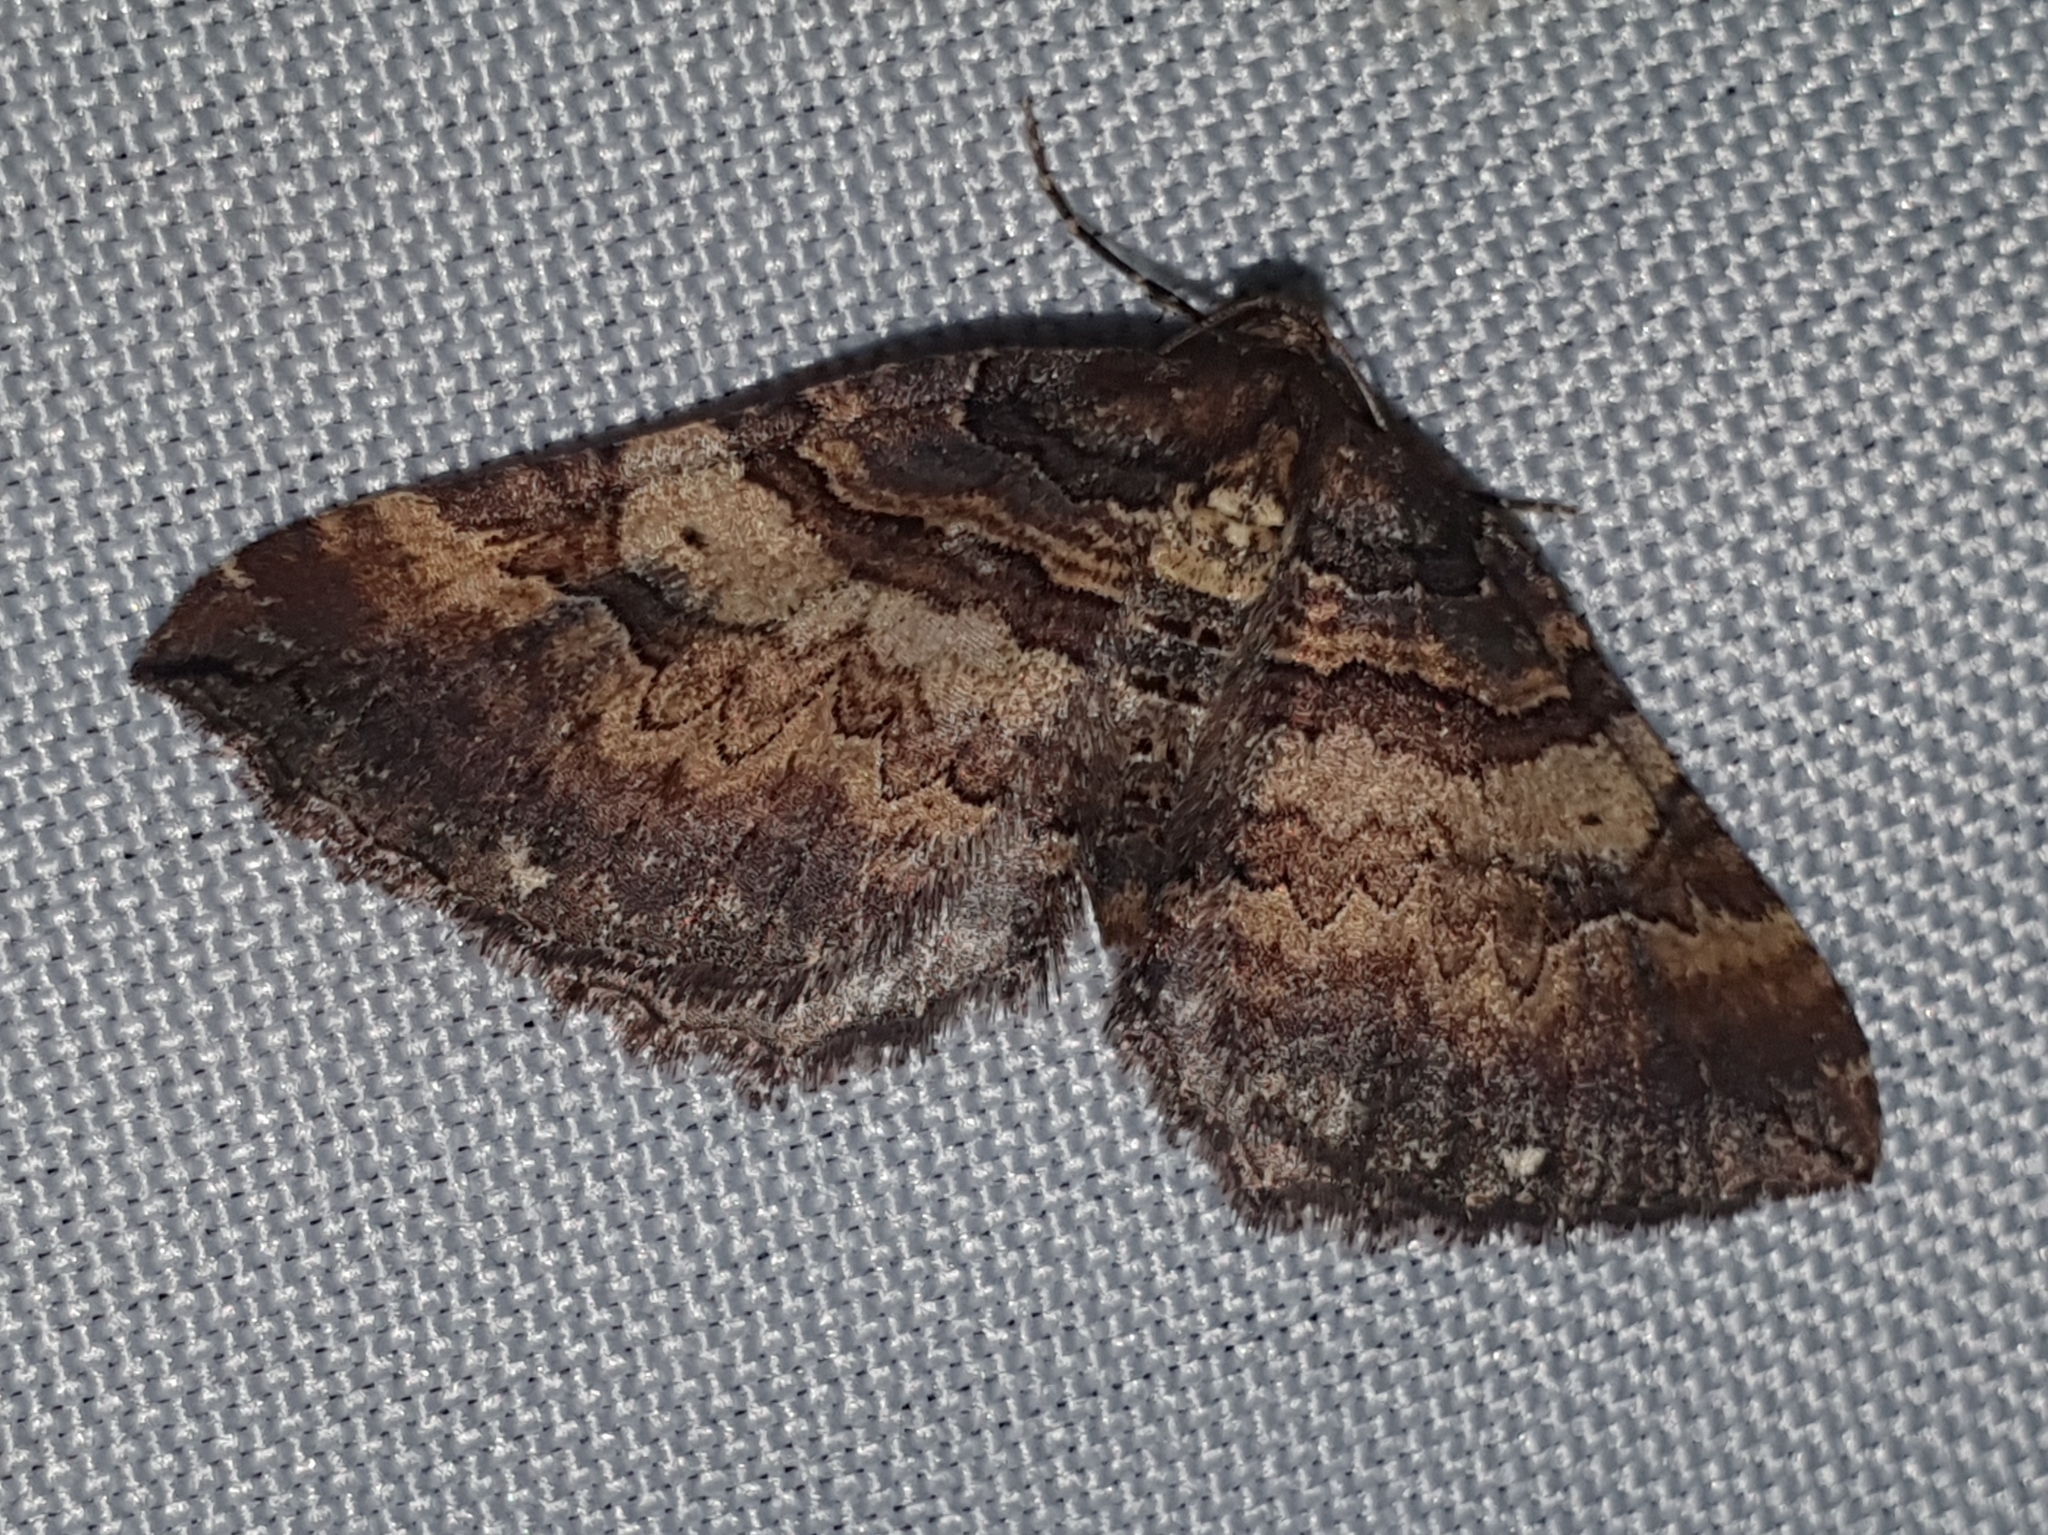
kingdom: Animalia
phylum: Arthropoda
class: Insecta
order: Lepidoptera
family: Geometridae
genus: Anticlea
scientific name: Anticlea badiata
